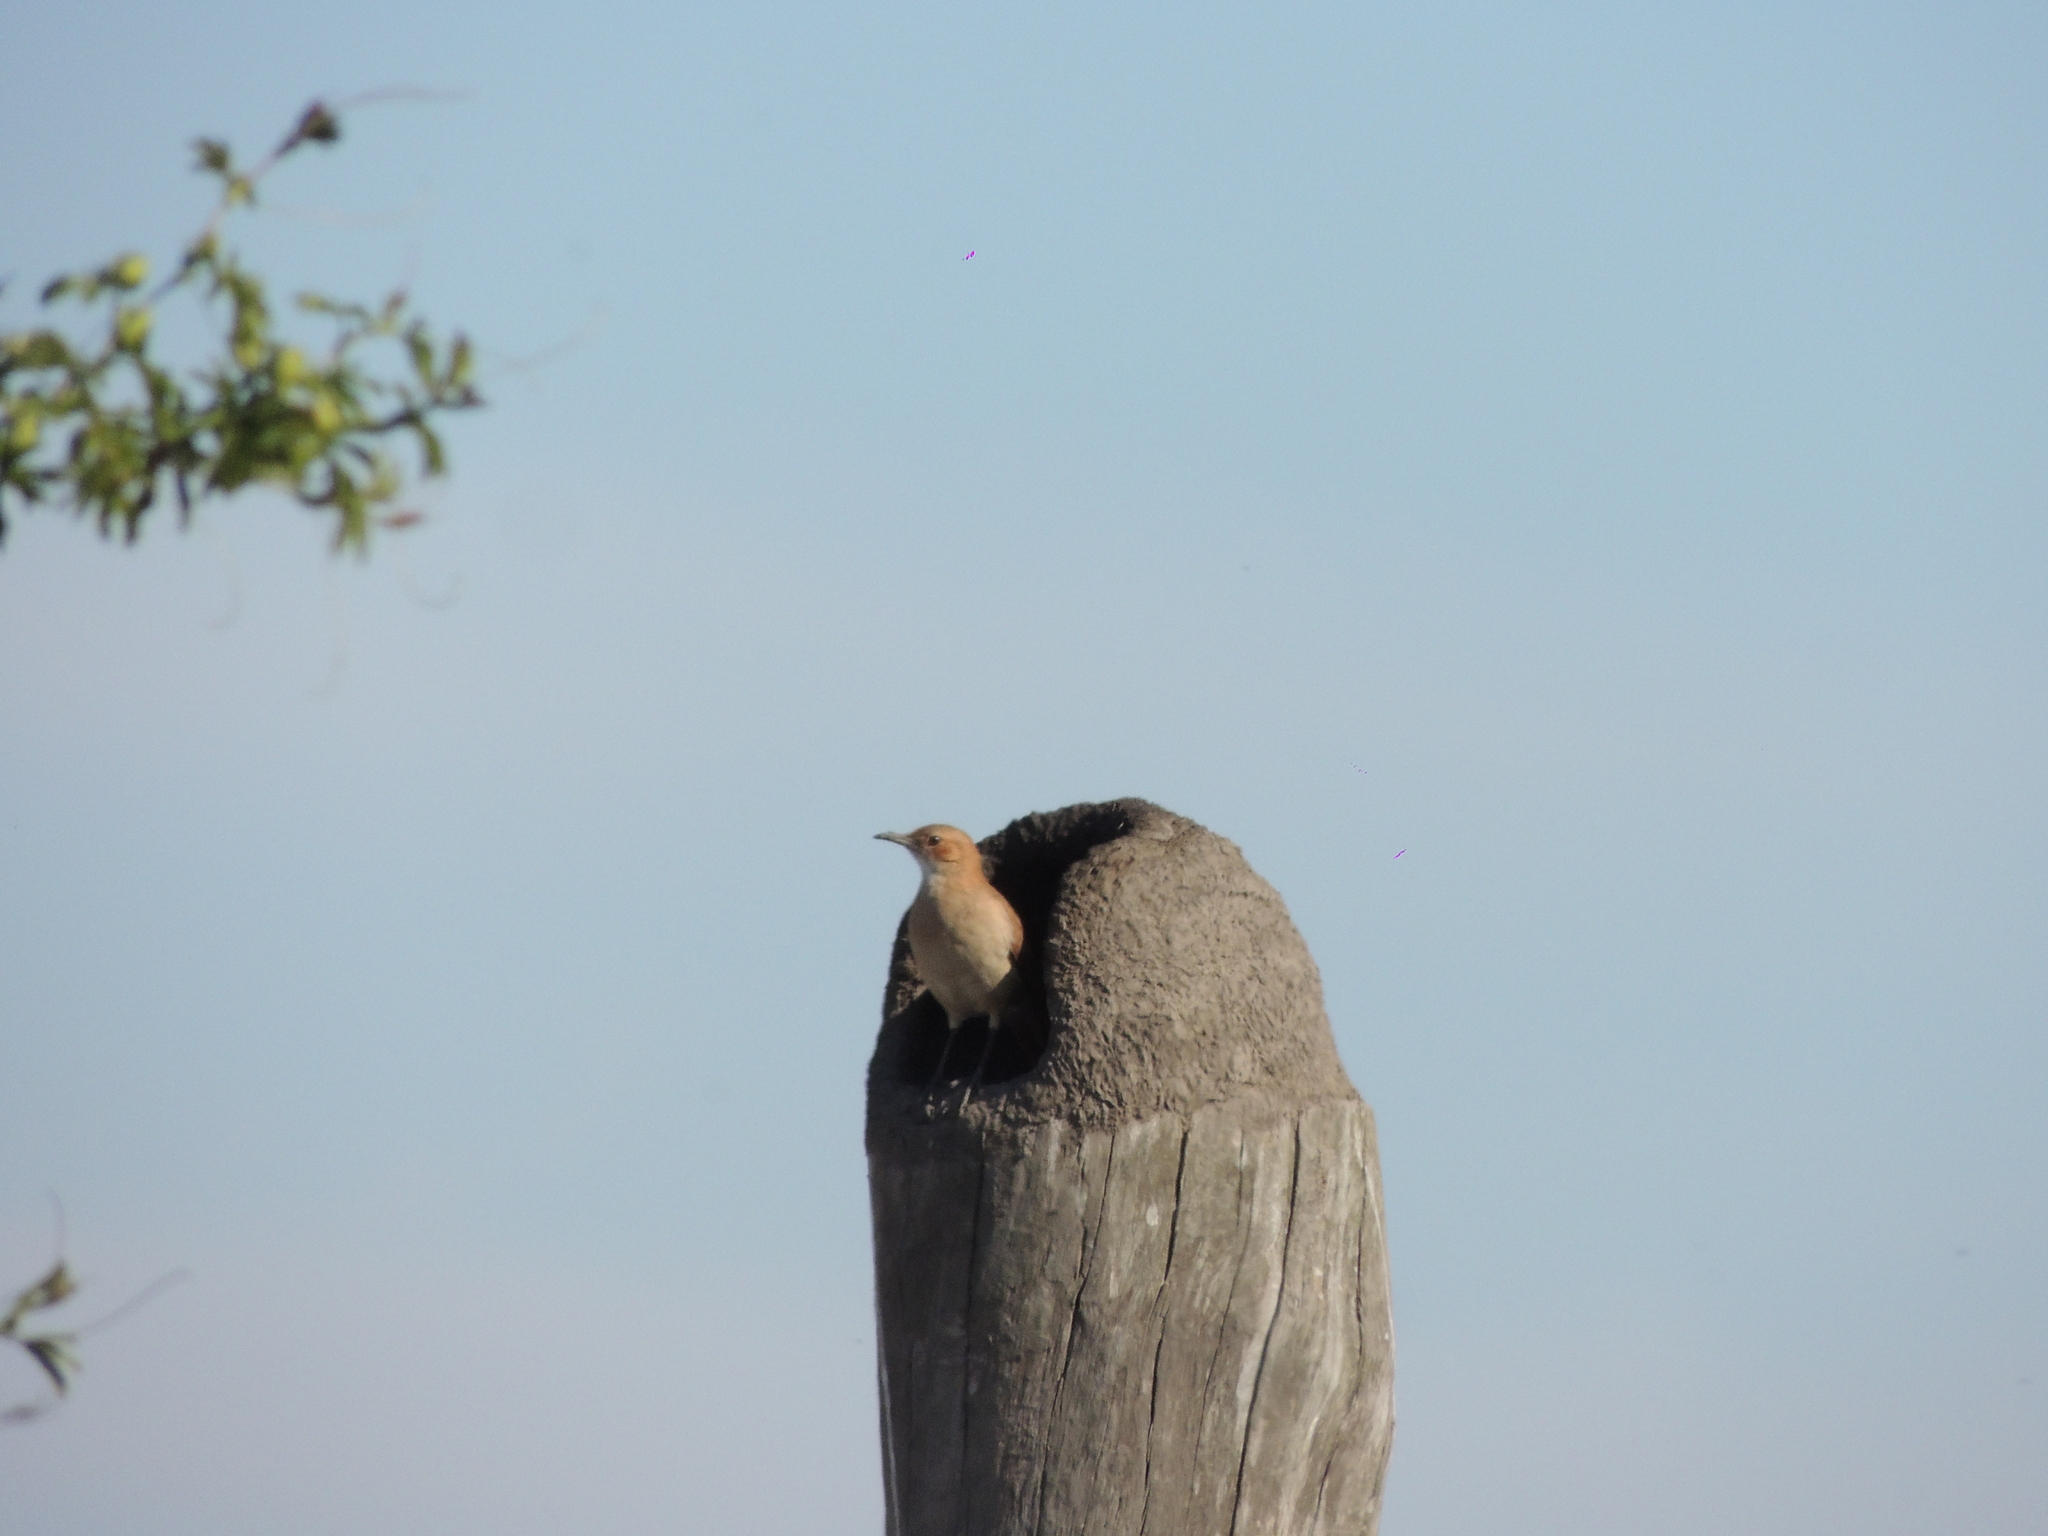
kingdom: Animalia
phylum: Chordata
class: Aves
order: Passeriformes
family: Furnariidae
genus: Furnarius
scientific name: Furnarius rufus
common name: Rufous hornero
